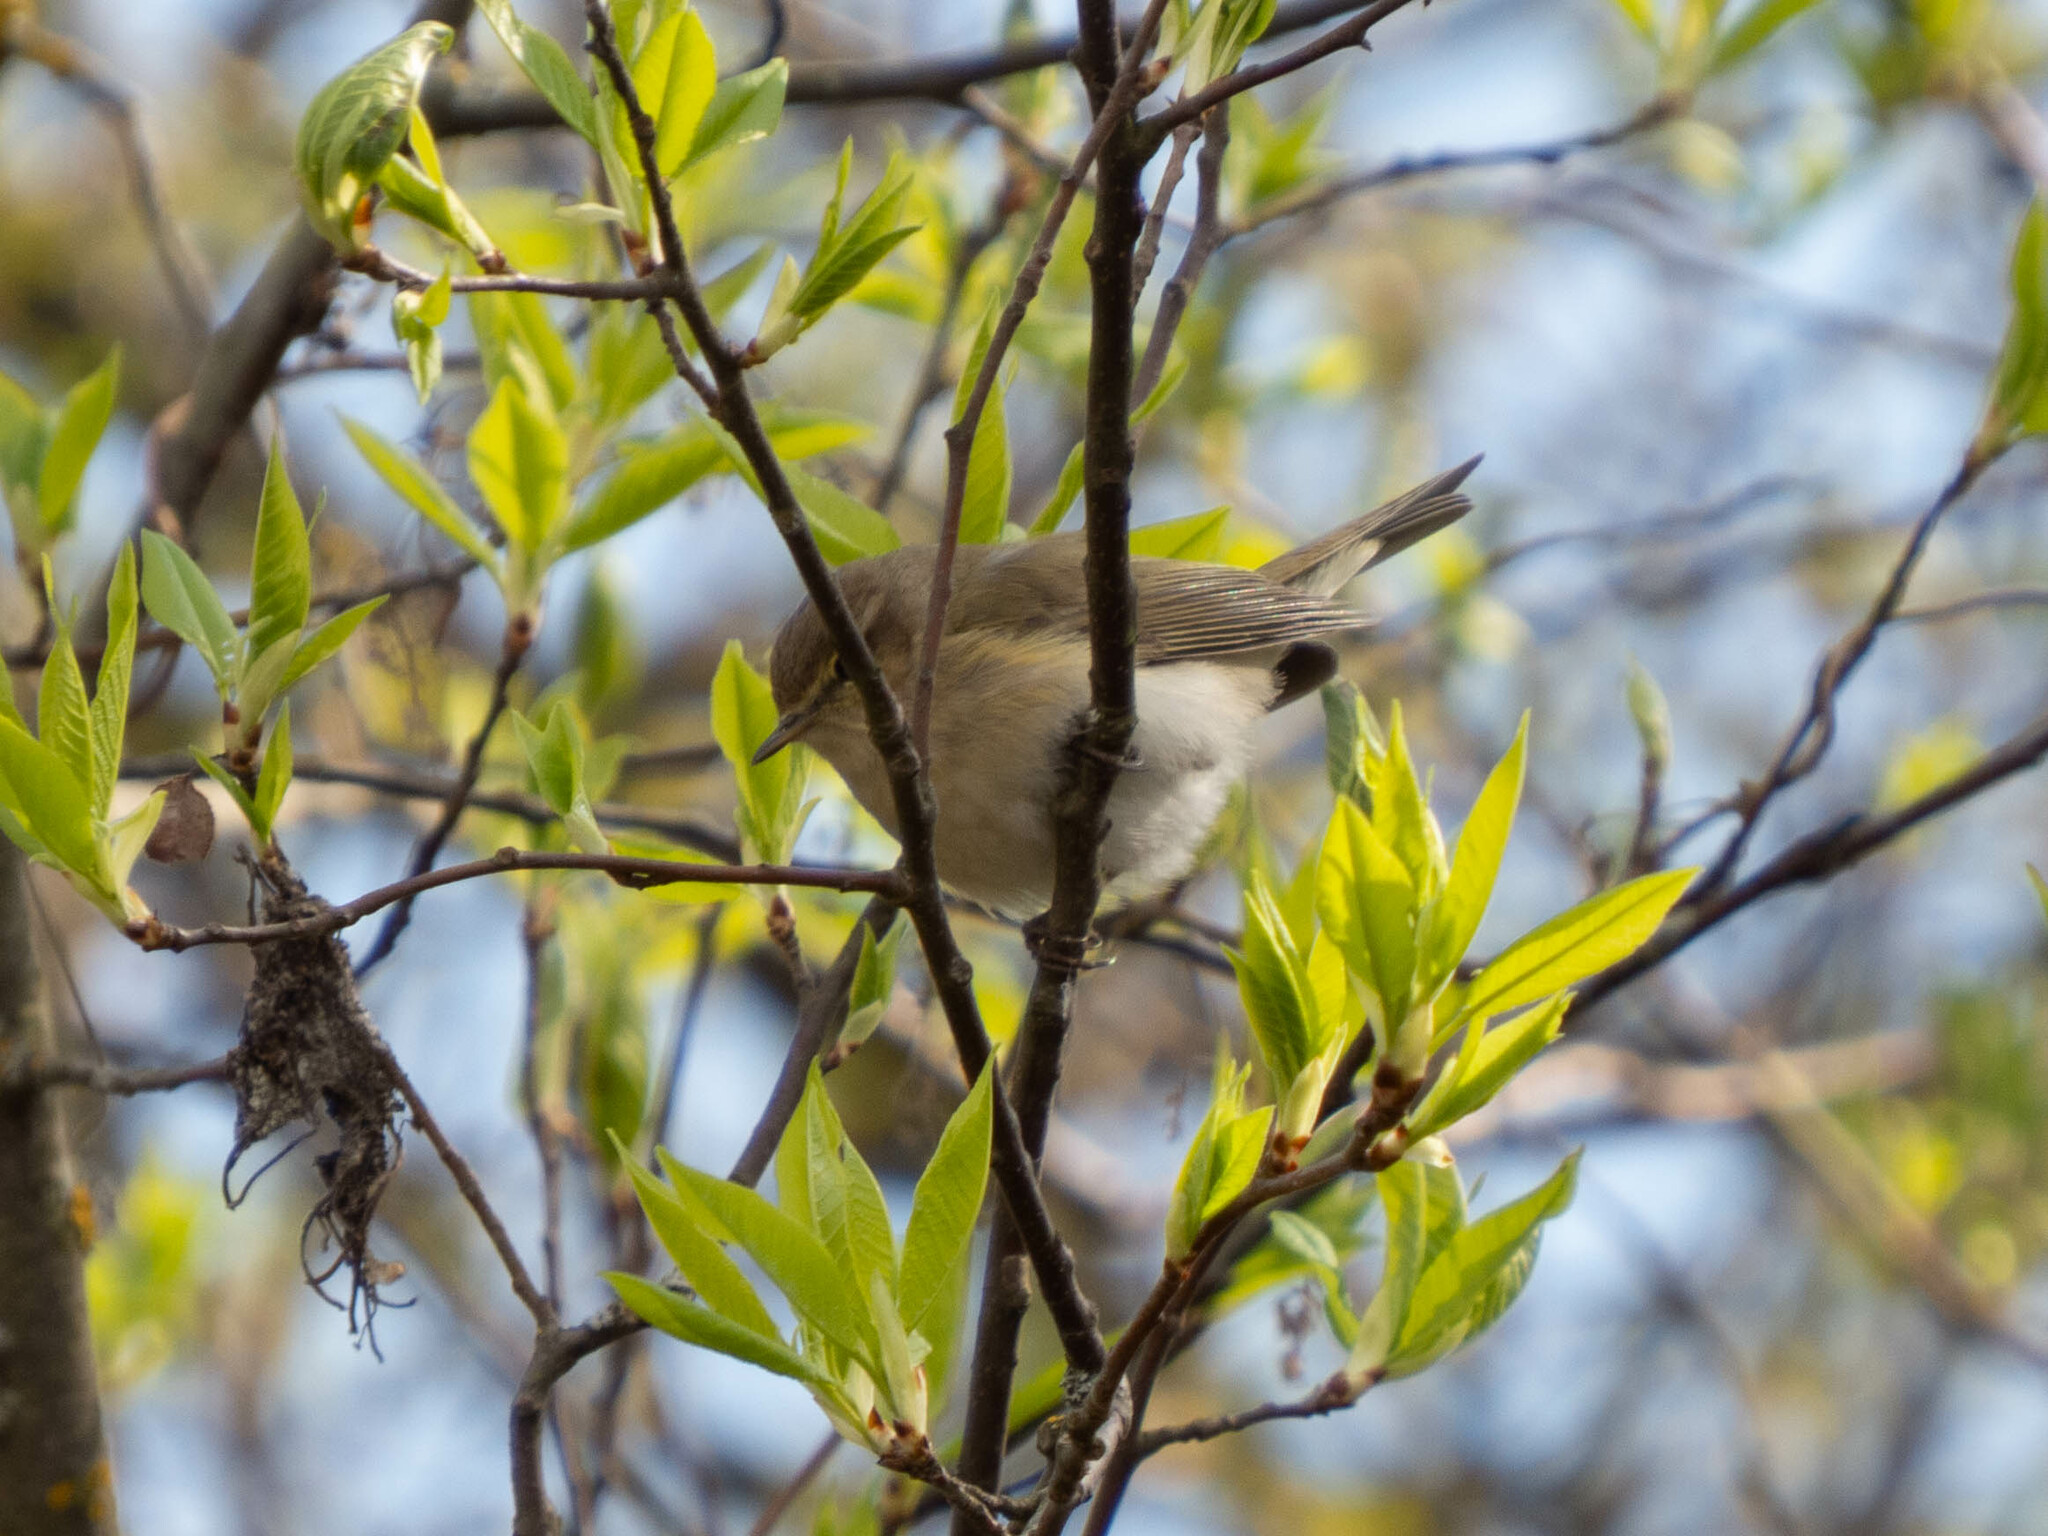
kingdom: Animalia
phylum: Chordata
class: Aves
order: Passeriformes
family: Phylloscopidae
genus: Phylloscopus
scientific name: Phylloscopus collybita
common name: Common chiffchaff
